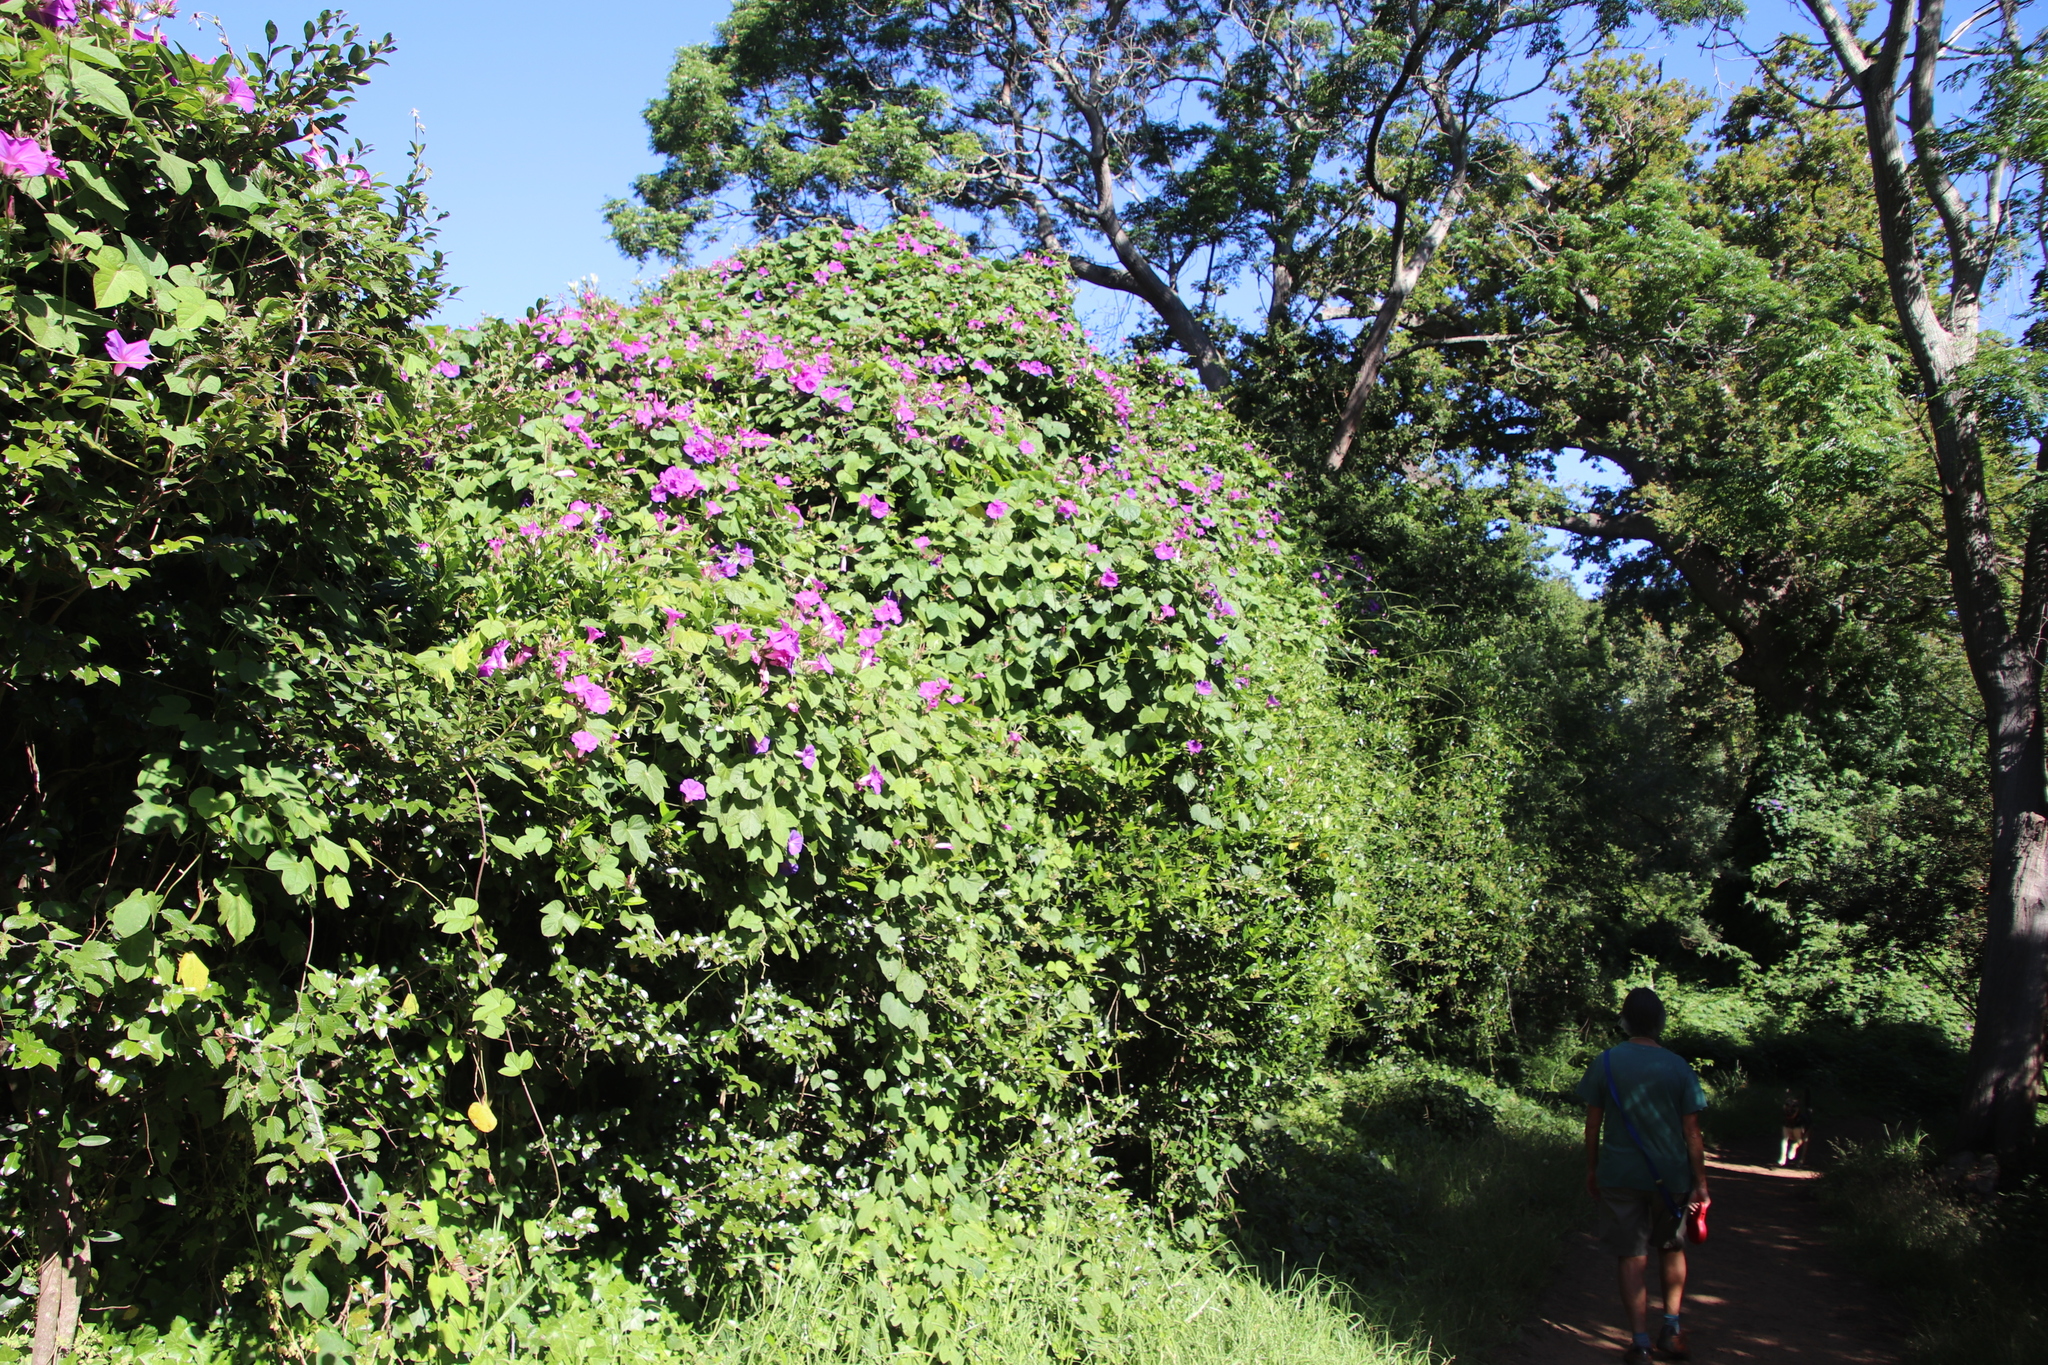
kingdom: Plantae
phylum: Tracheophyta
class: Magnoliopsida
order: Solanales
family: Convolvulaceae
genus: Ipomoea
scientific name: Ipomoea indica
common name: Blue dawnflower
